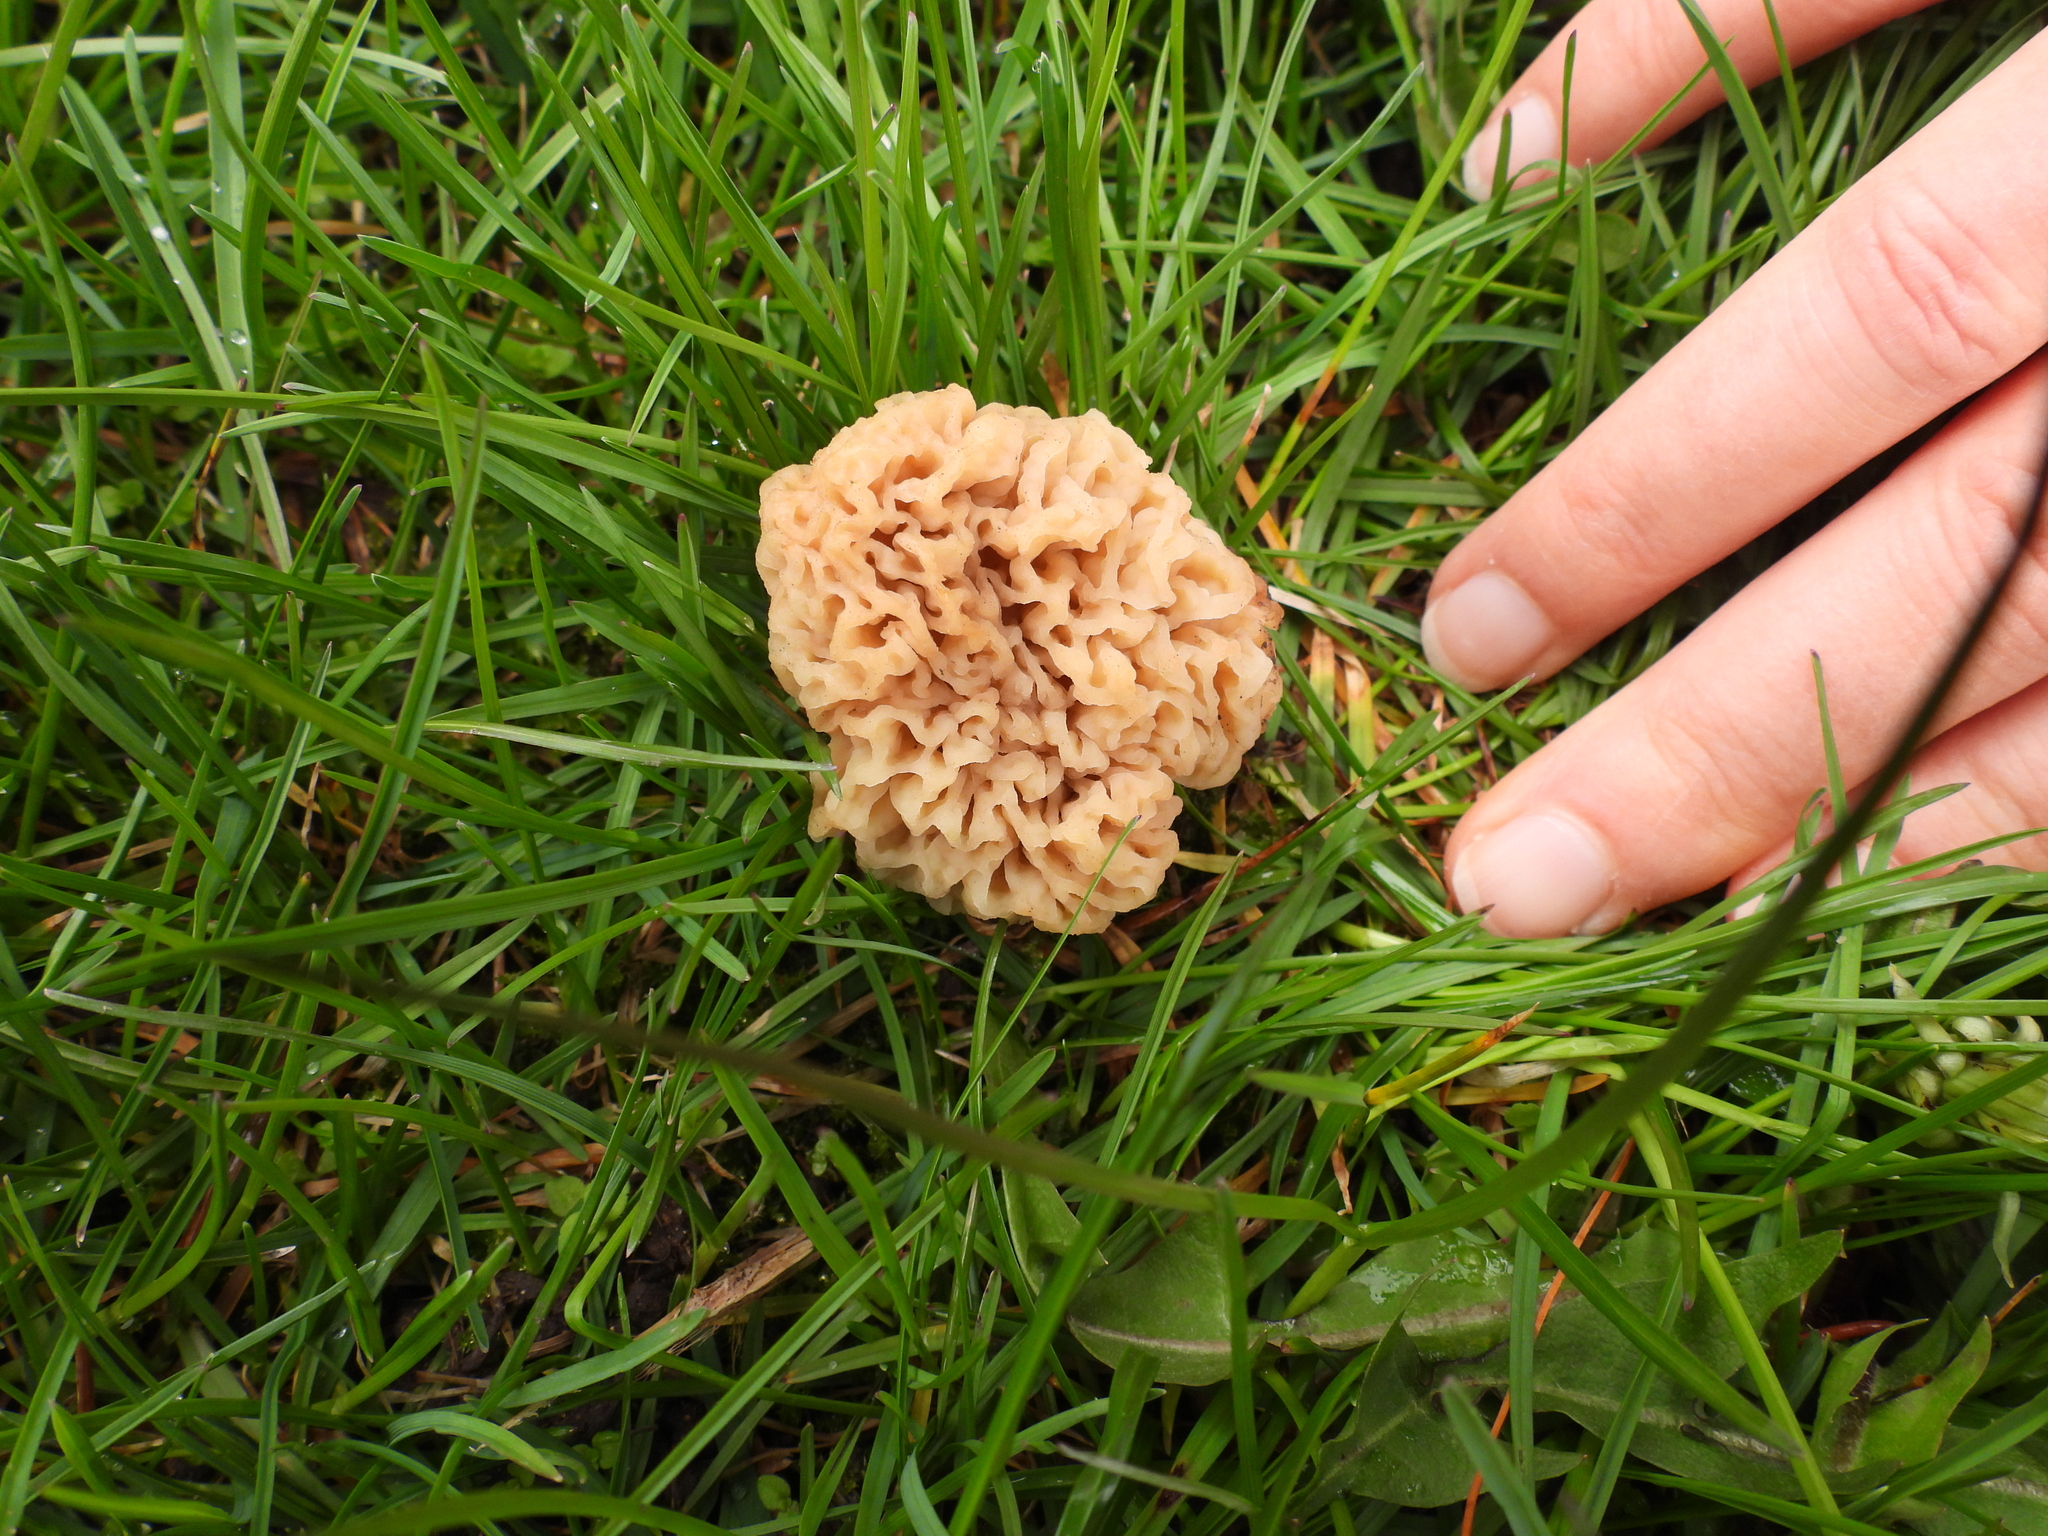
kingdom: Fungi
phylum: Ascomycota
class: Pezizomycetes
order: Pezizales
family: Morchellaceae
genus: Morchella
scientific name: Morchella americana
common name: White morel
